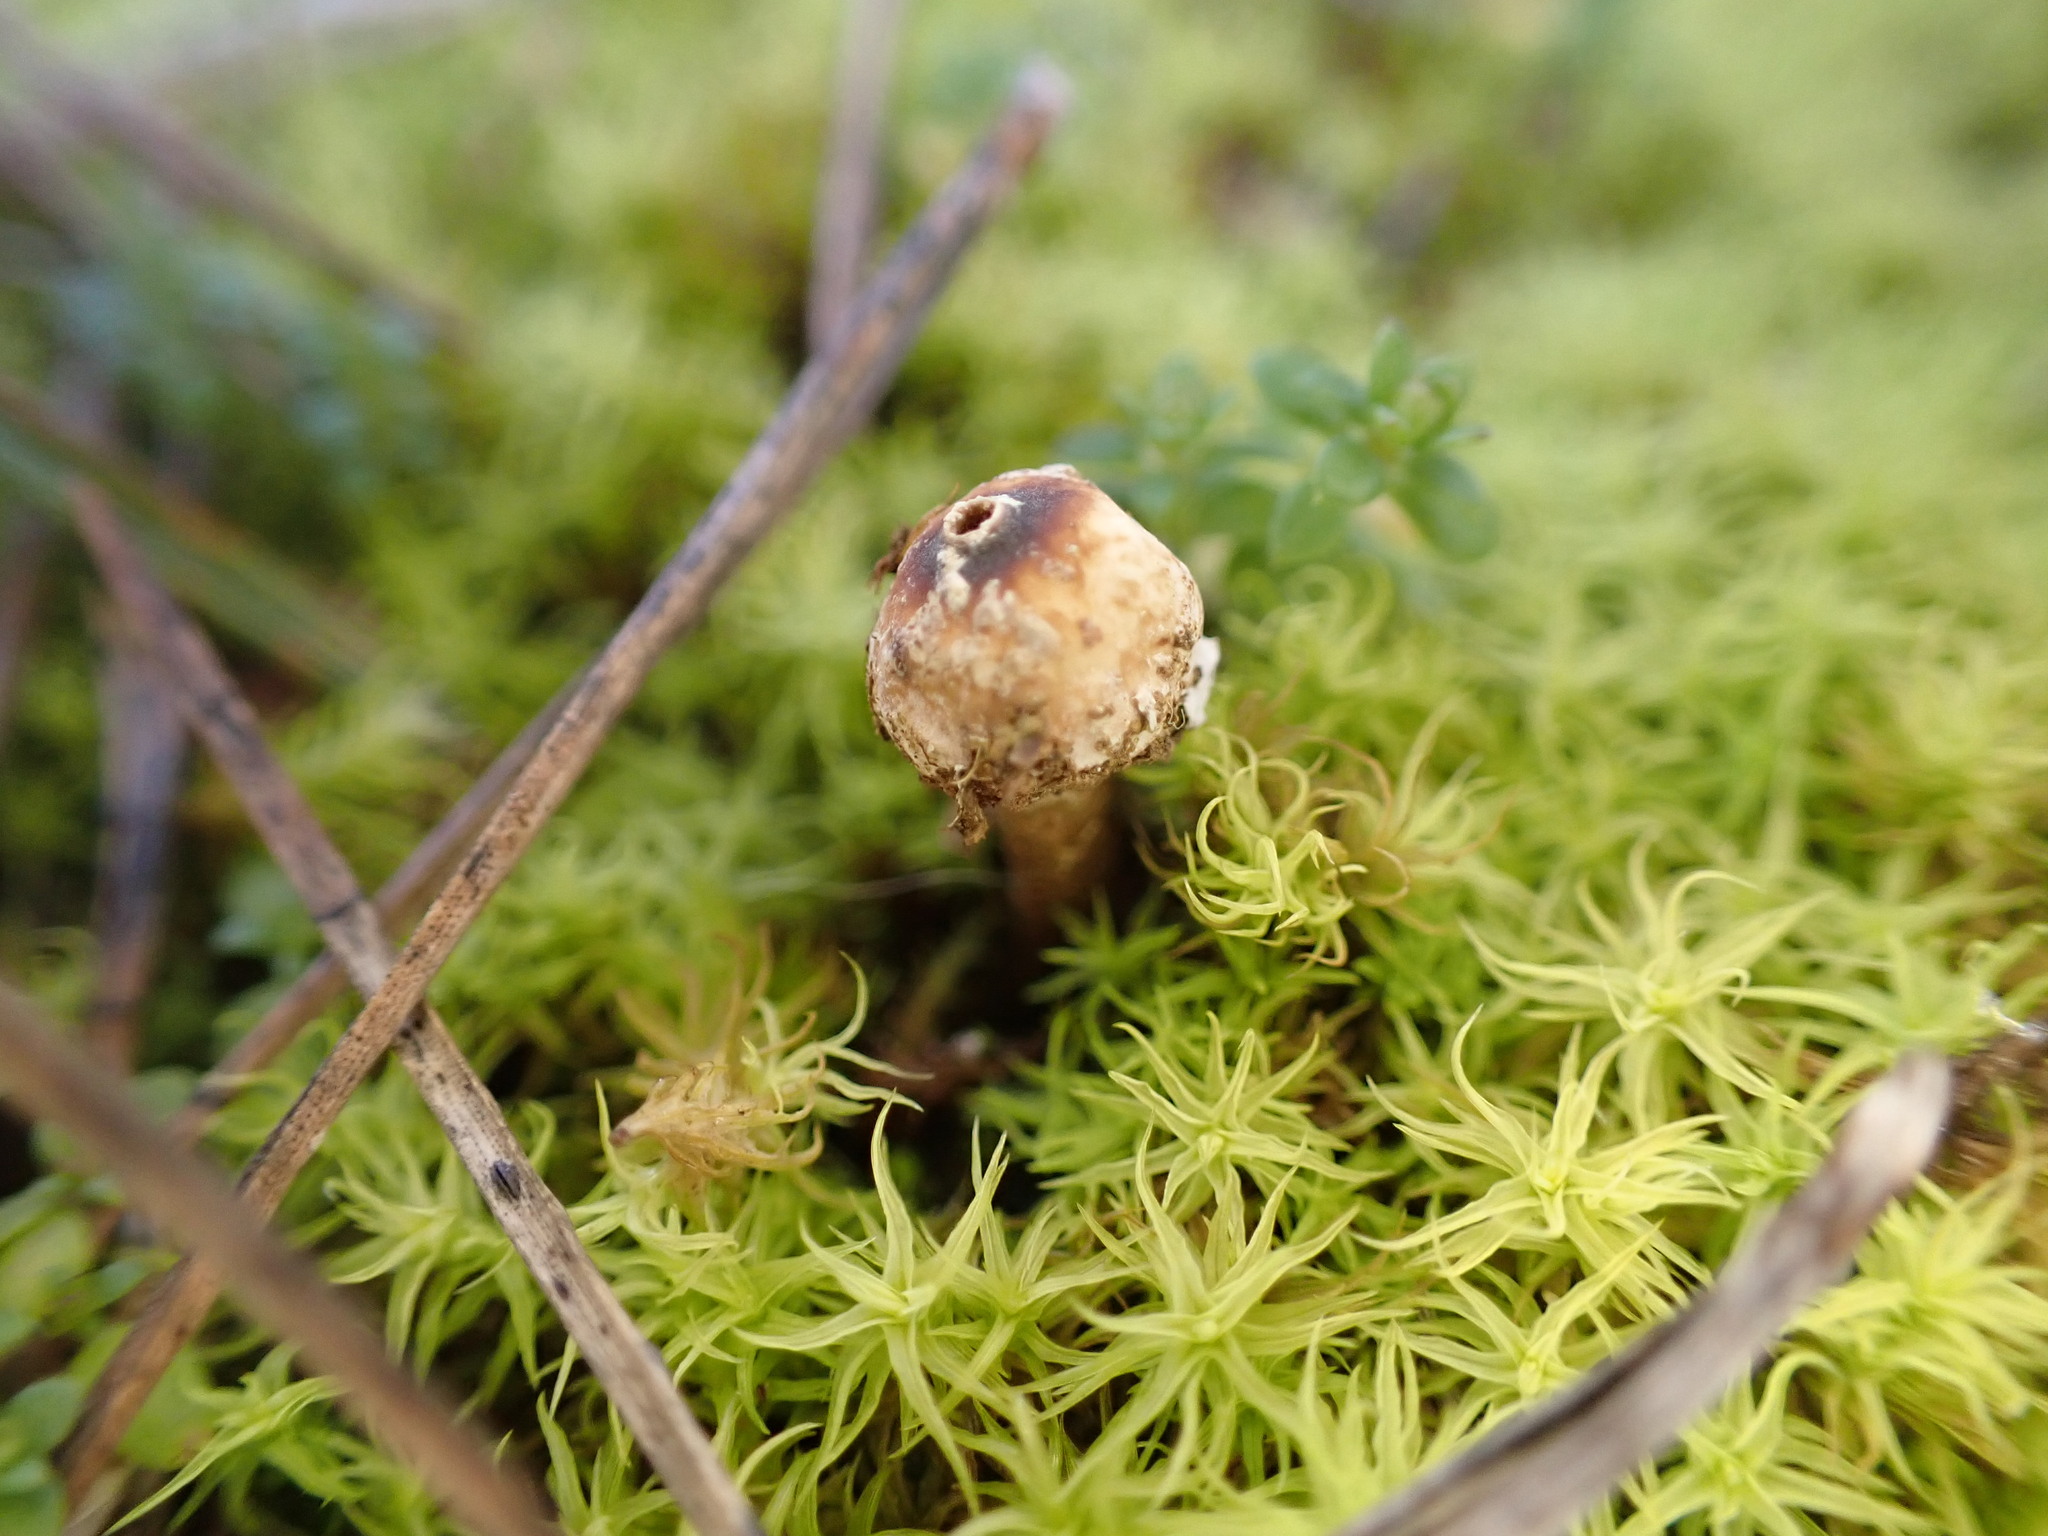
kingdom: Fungi
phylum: Basidiomycota
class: Agaricomycetes
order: Agaricales
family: Agaricaceae
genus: Tulostoma
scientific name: Tulostoma brumale
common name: Winter stalk puffball
